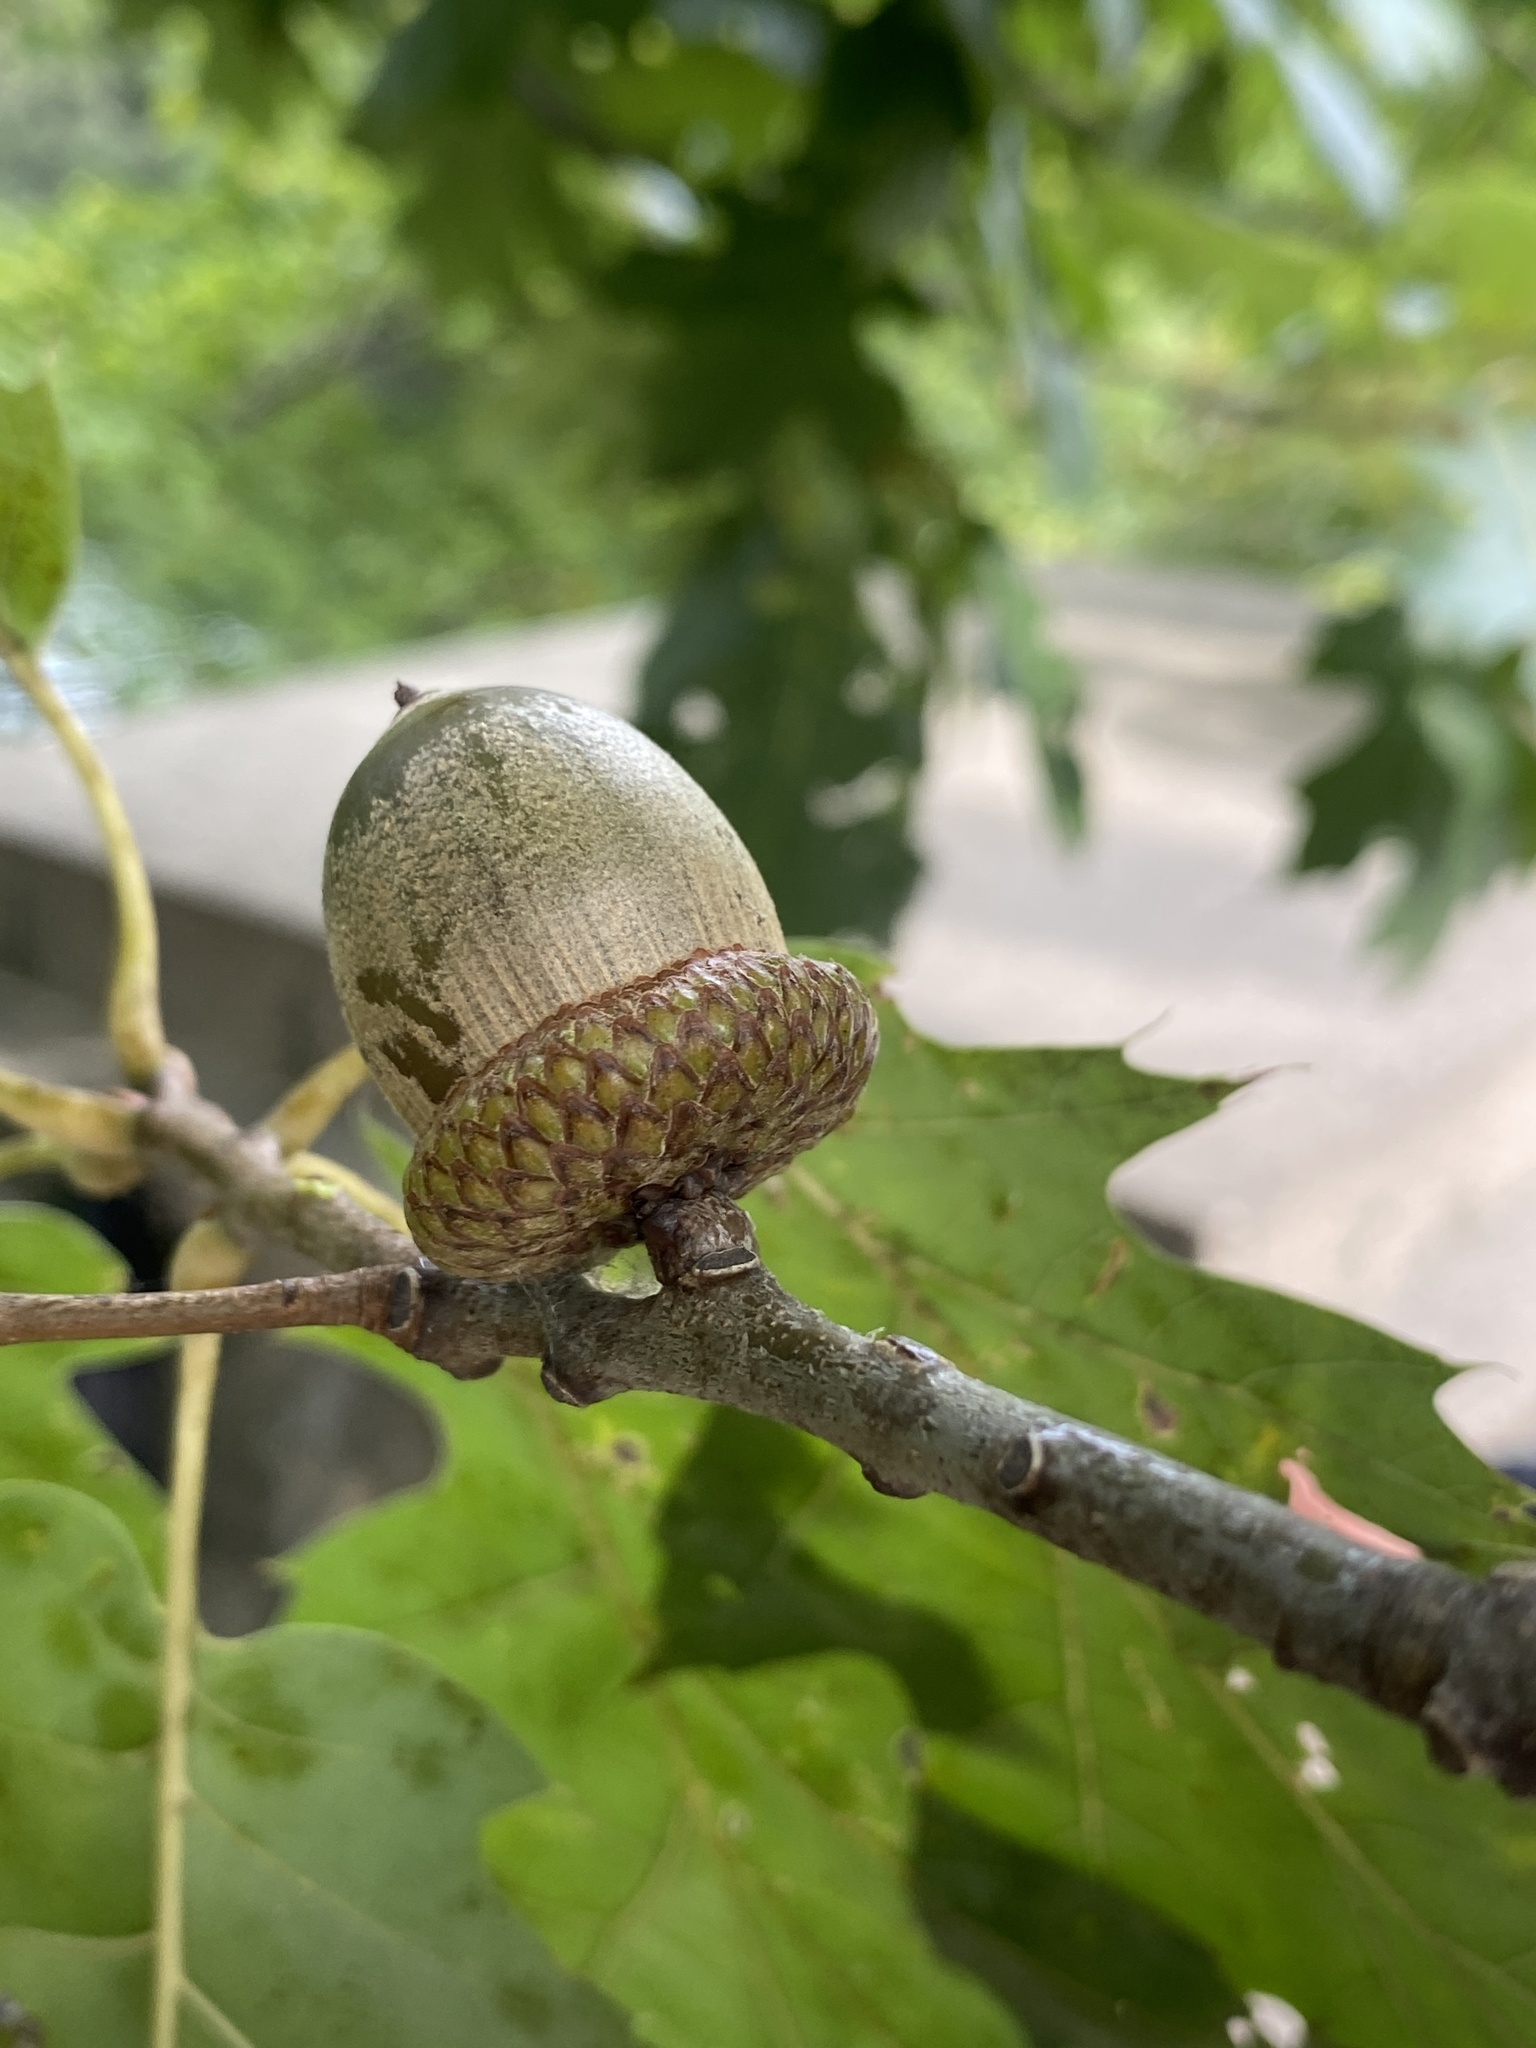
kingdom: Plantae
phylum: Tracheophyta
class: Magnoliopsida
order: Fagales
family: Fagaceae
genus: Quercus
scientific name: Quercus rubra
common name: Red oak
